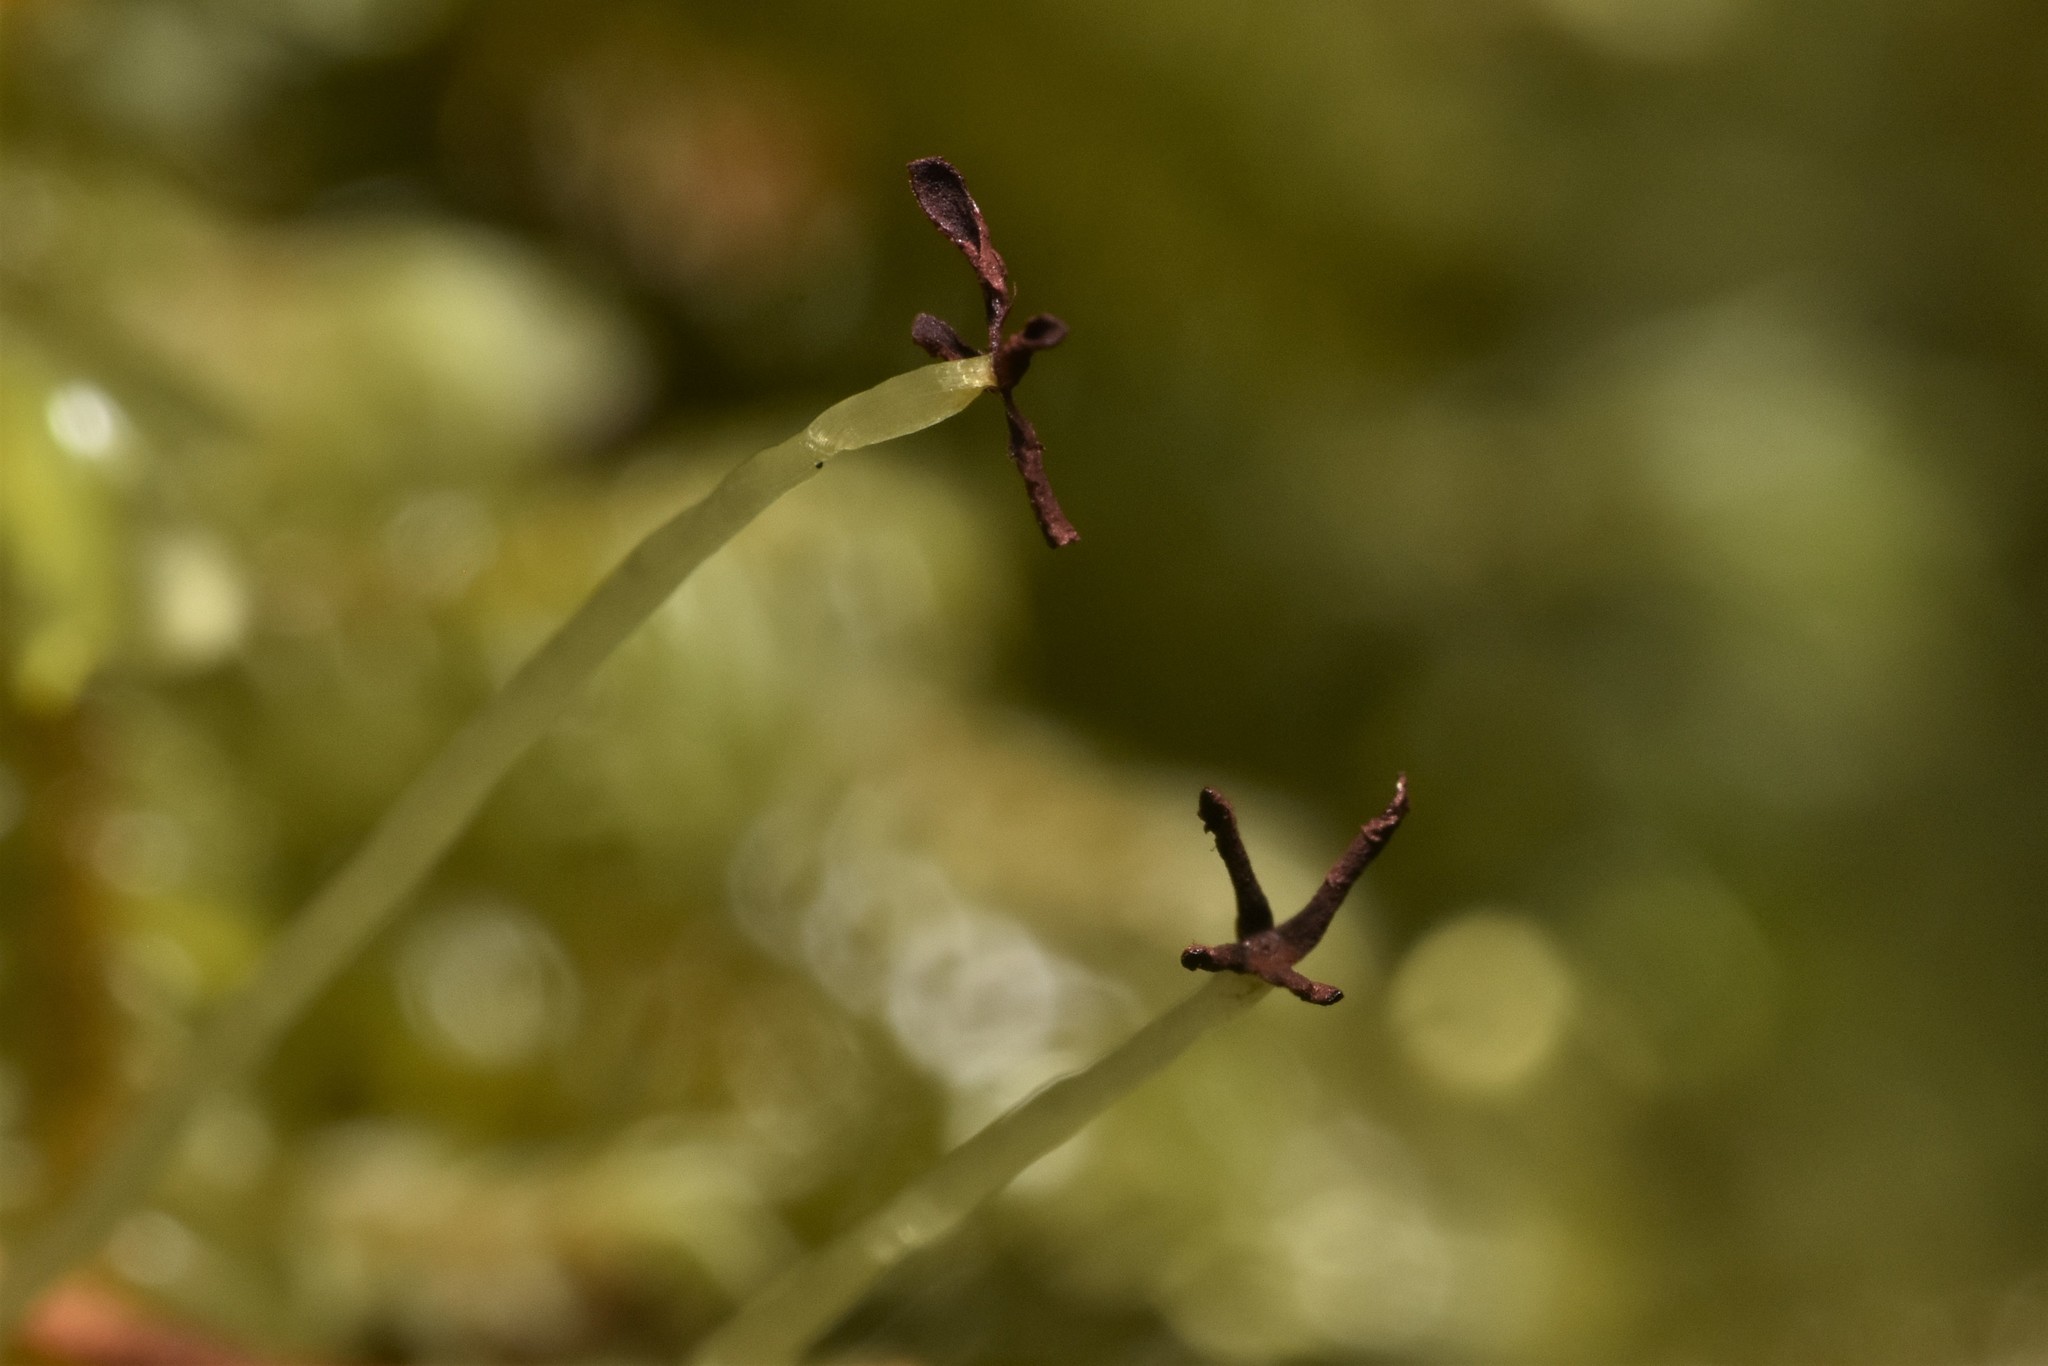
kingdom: Plantae
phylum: Marchantiophyta
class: Jungermanniopsida
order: Jungermanniales
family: Plagiochilaceae
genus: Plagiochila
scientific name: Plagiochila porelloides
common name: Lesser featherwort
